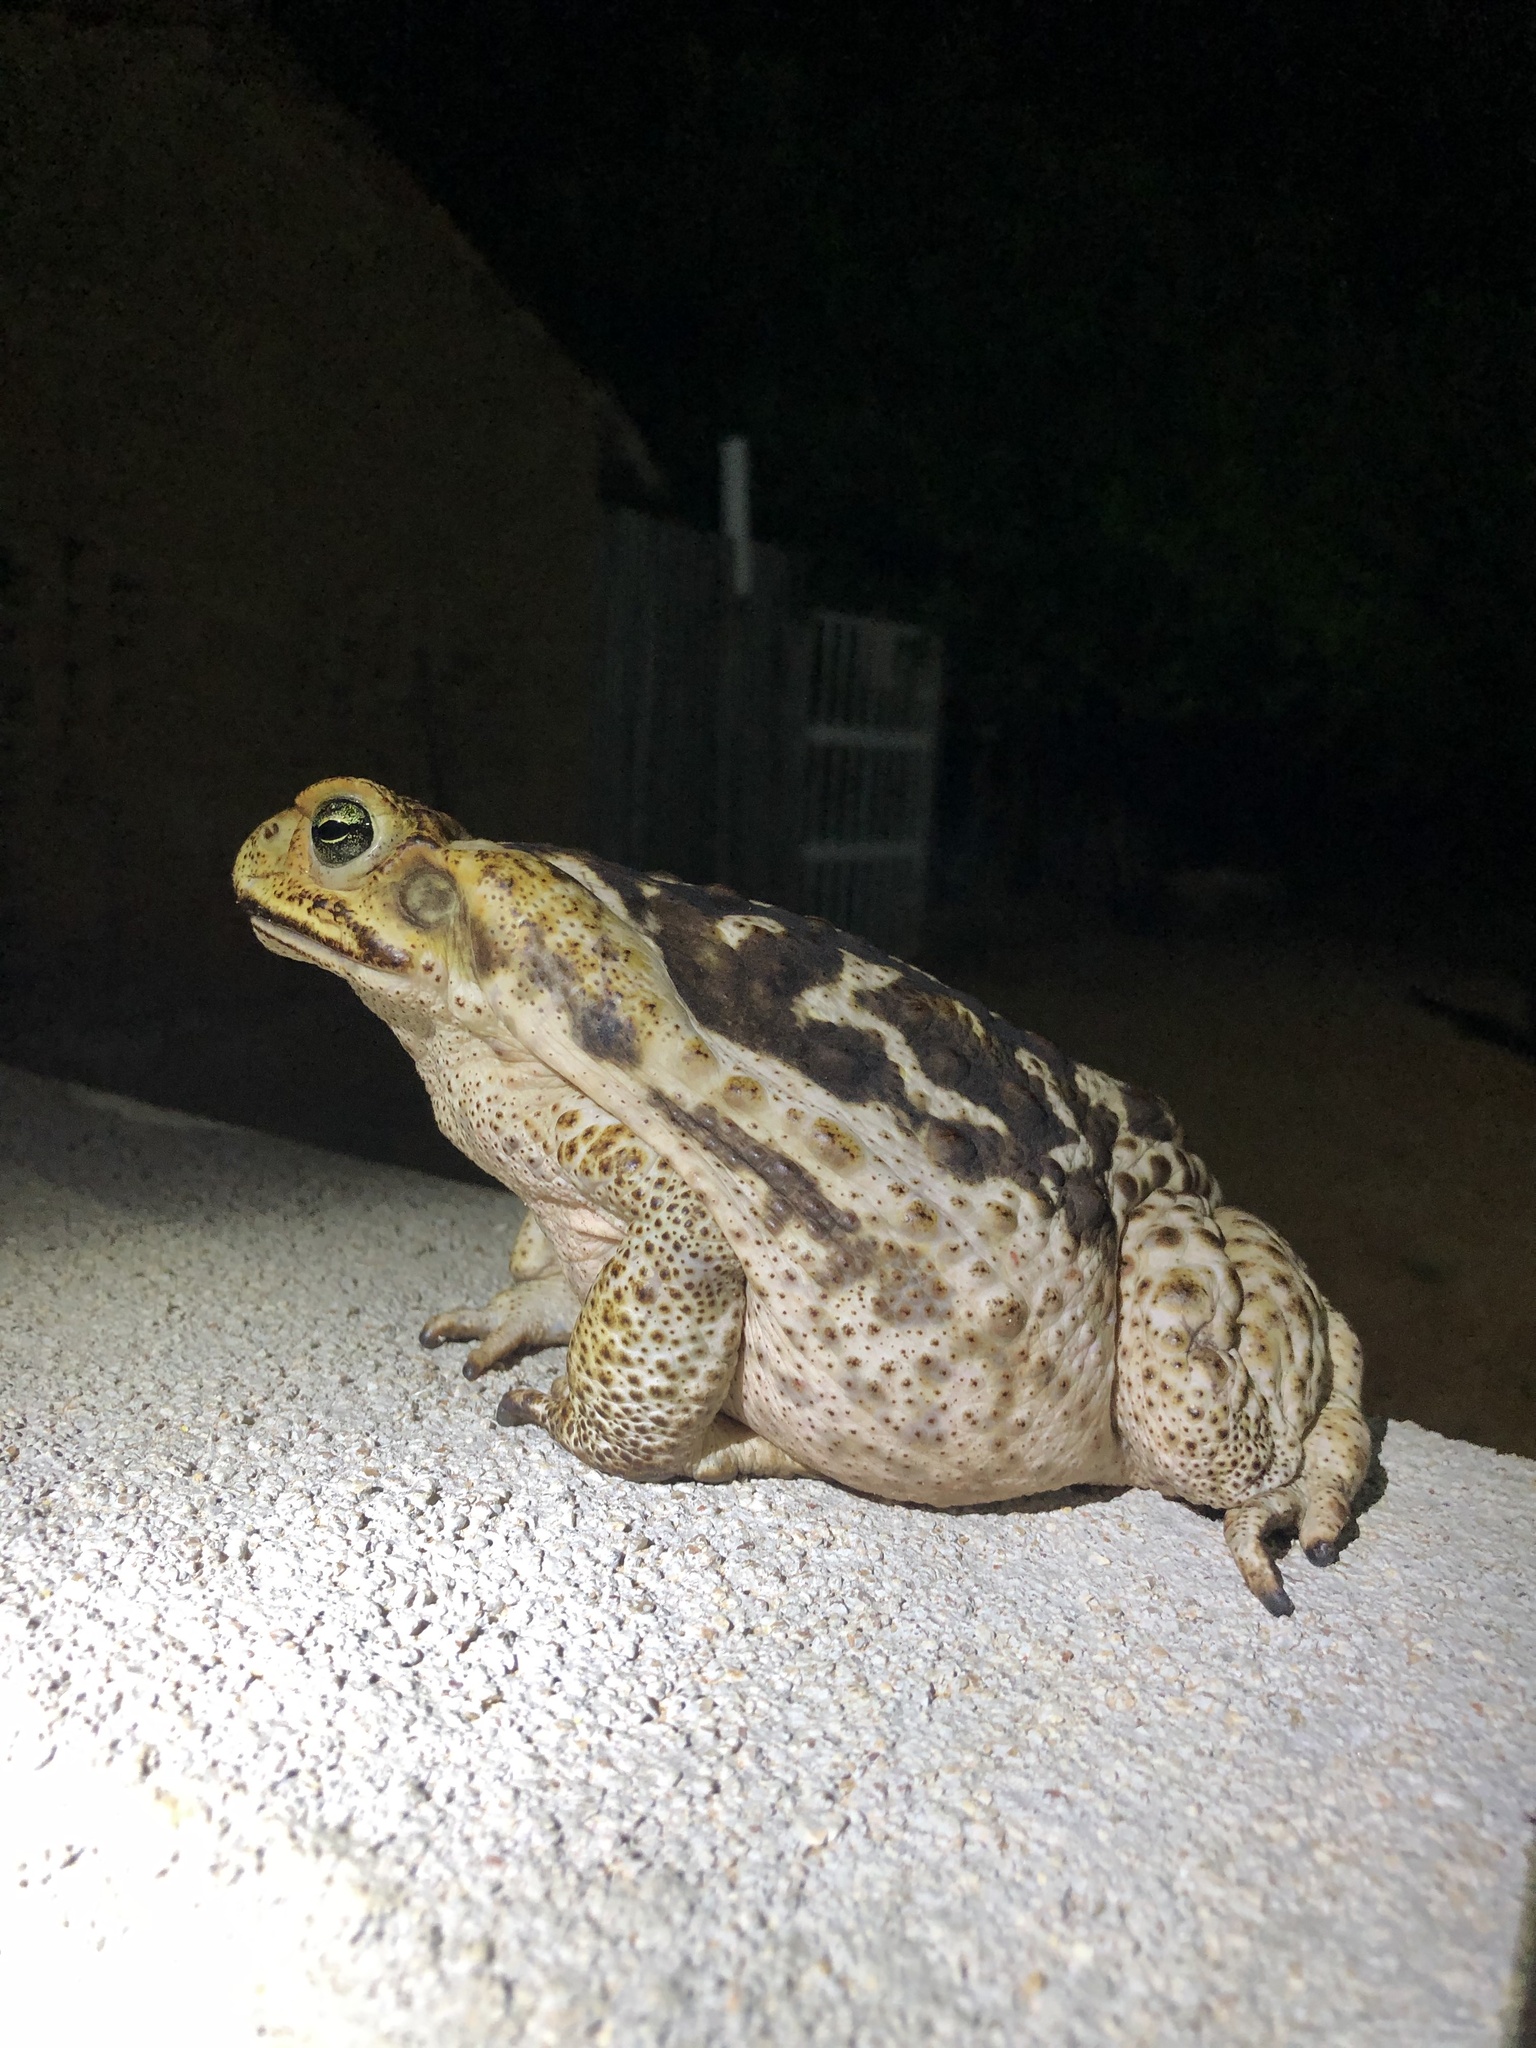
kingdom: Animalia
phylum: Chordata
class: Amphibia
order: Anura
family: Bufonidae
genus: Rhinella
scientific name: Rhinella diptycha
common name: Cope's toad
